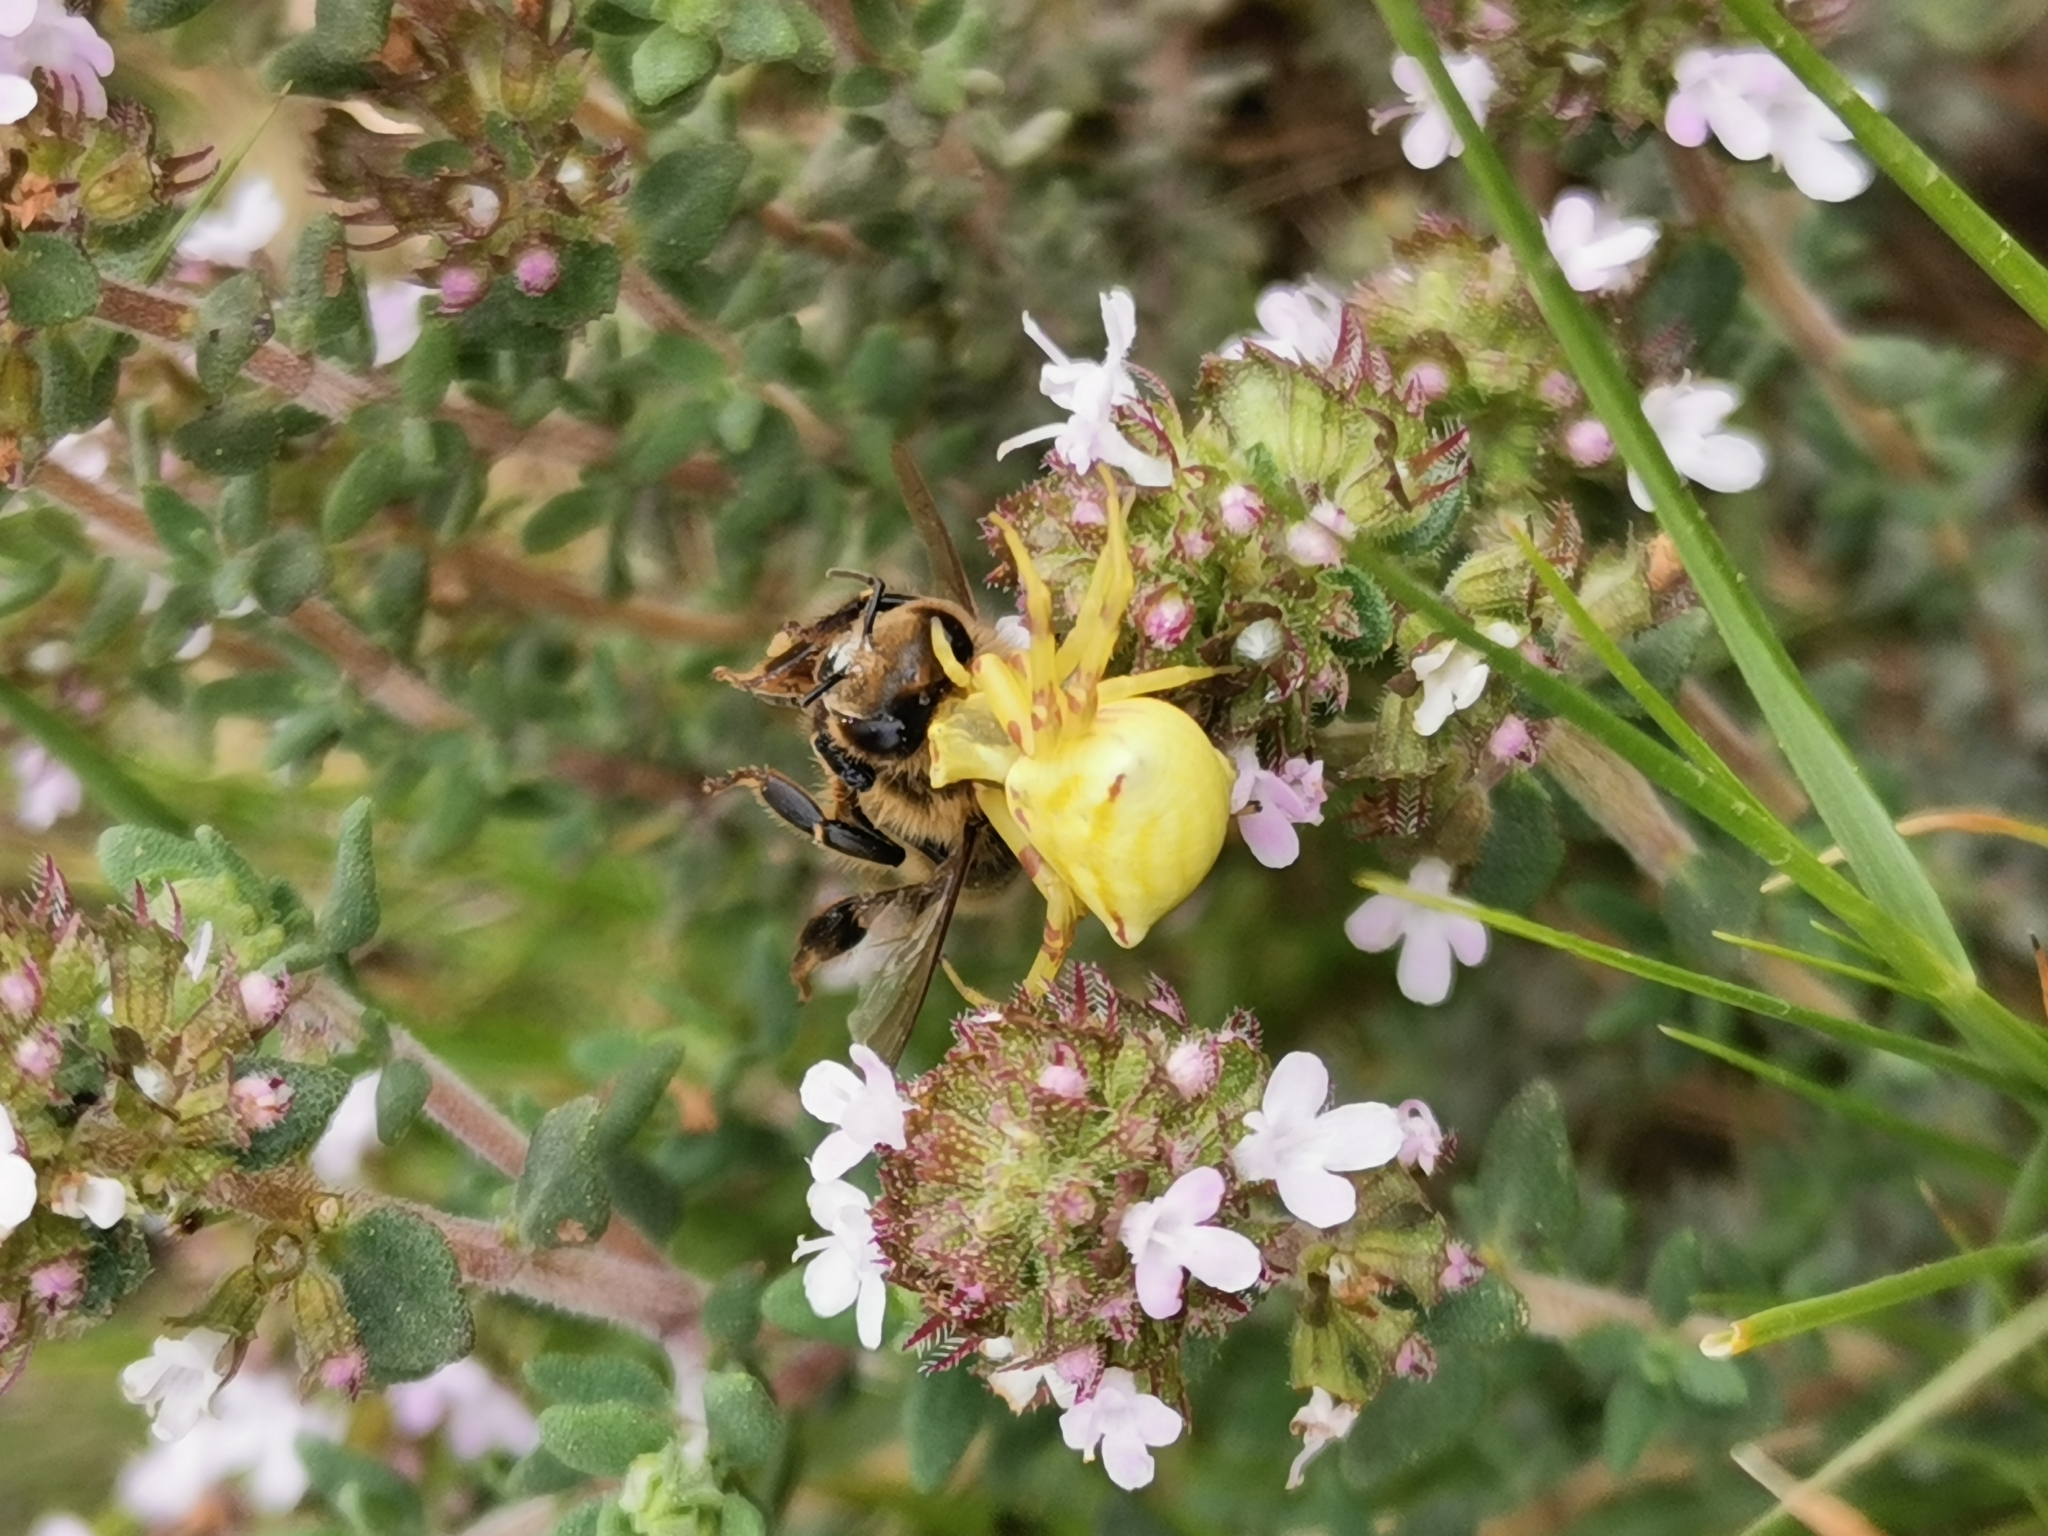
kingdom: Animalia
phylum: Arthropoda
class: Arachnida
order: Araneae
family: Thomisidae
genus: Thomisus
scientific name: Thomisus onustus
